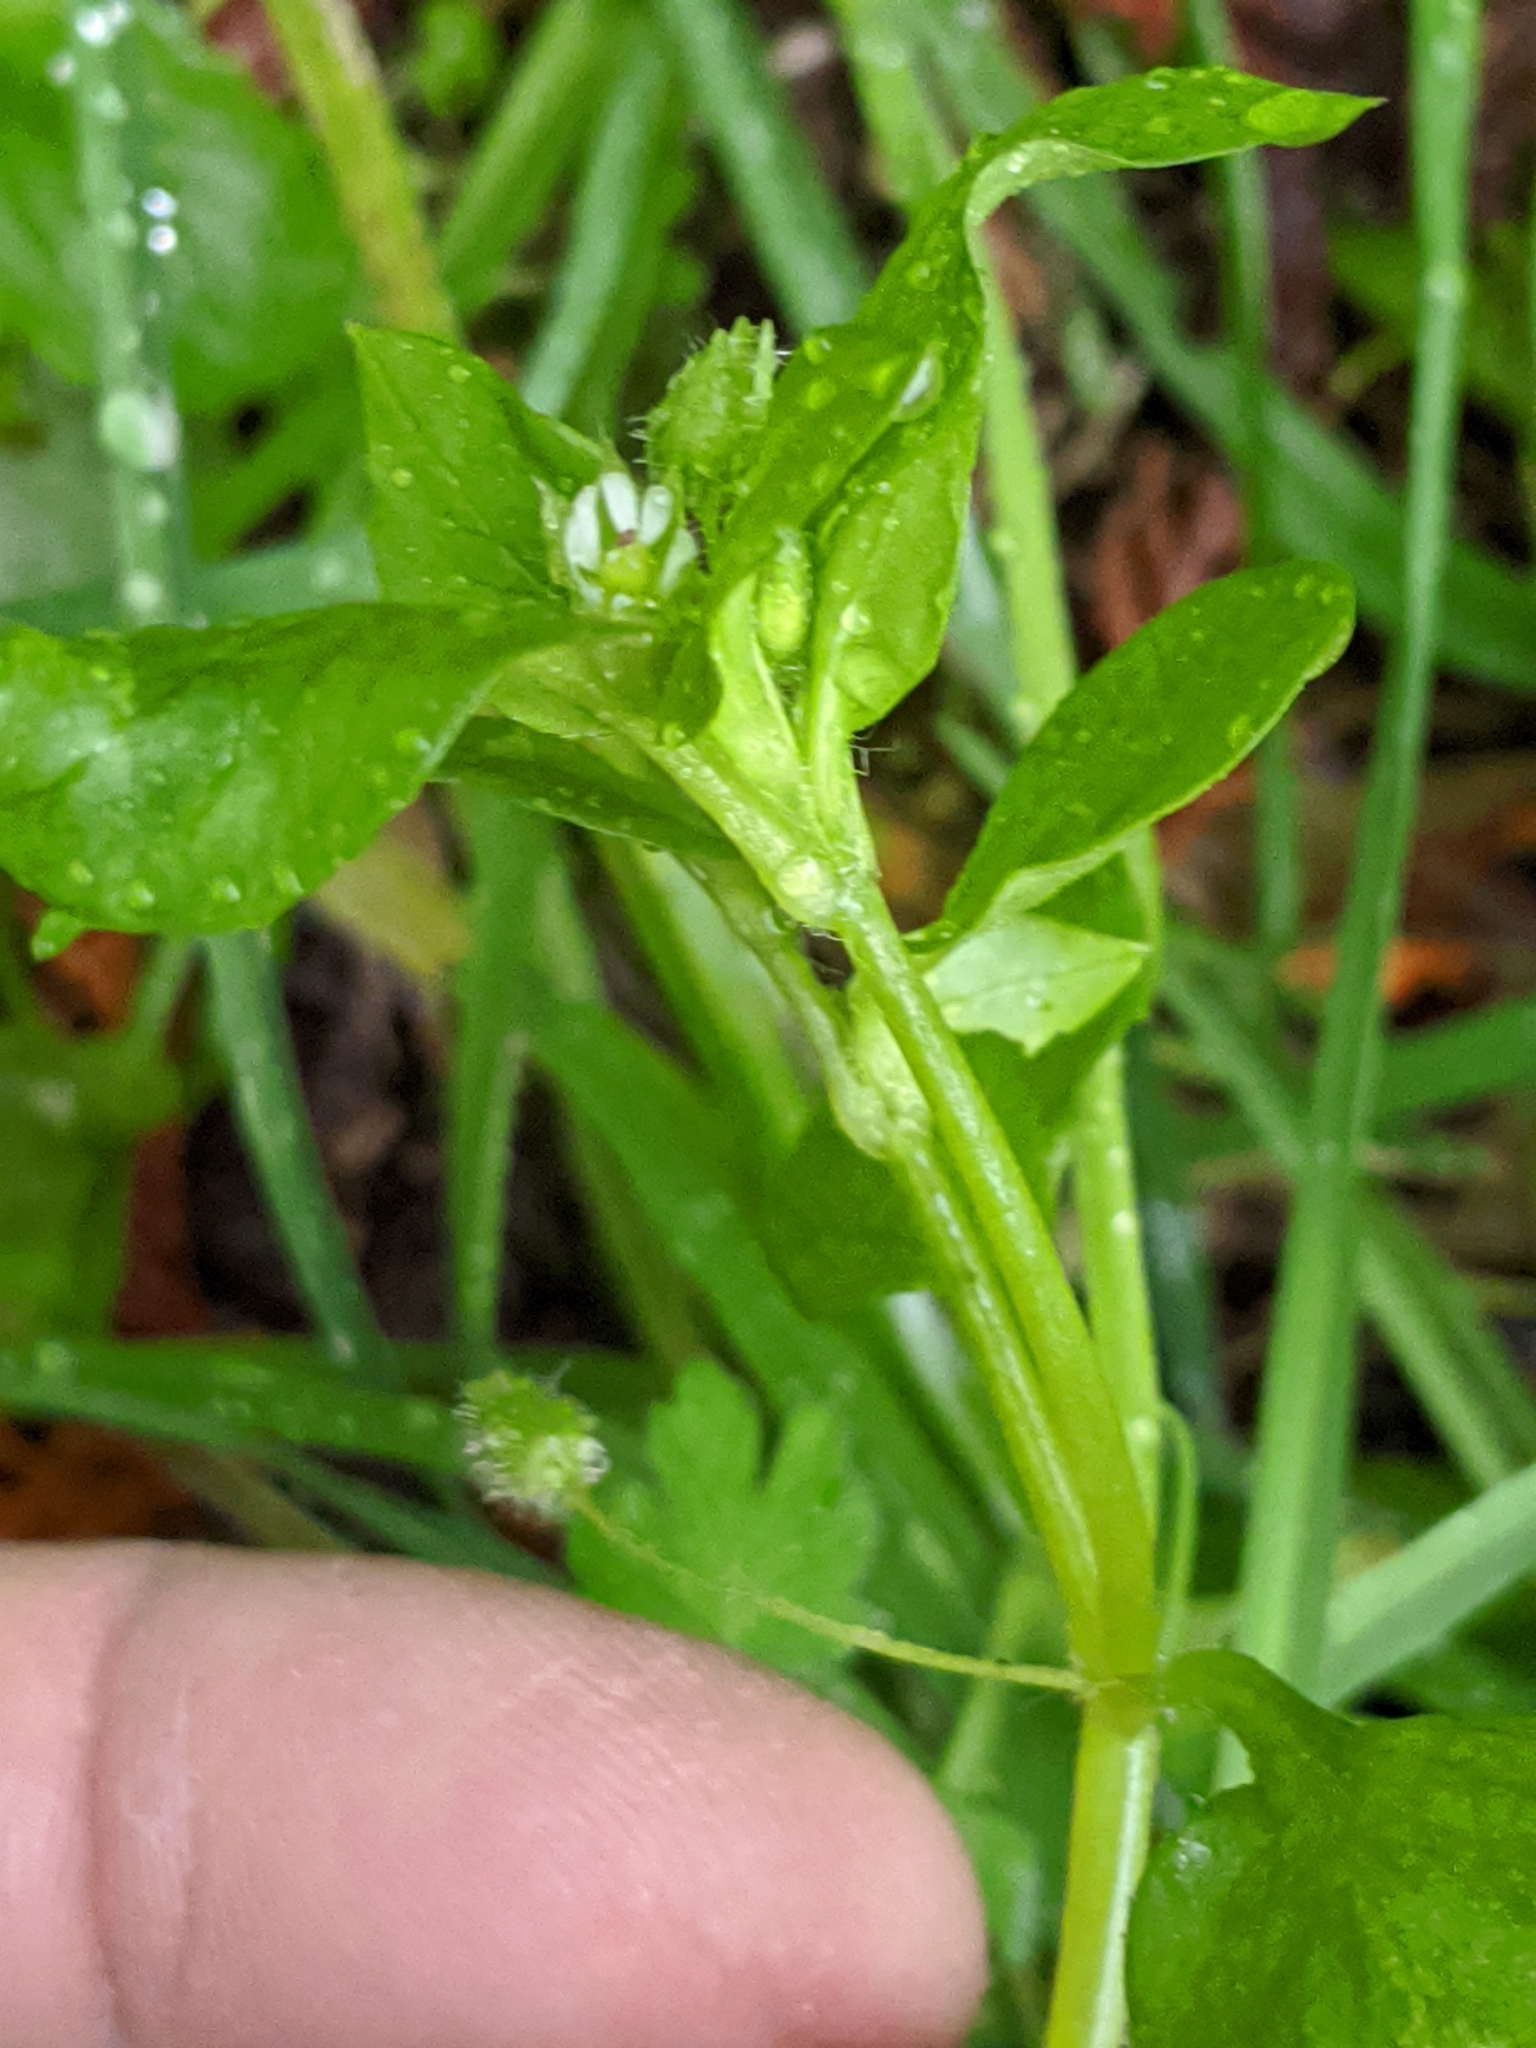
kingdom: Plantae
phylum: Tracheophyta
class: Magnoliopsida
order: Caryophyllales
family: Caryophyllaceae
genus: Stellaria
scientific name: Stellaria media
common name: Common chickweed
